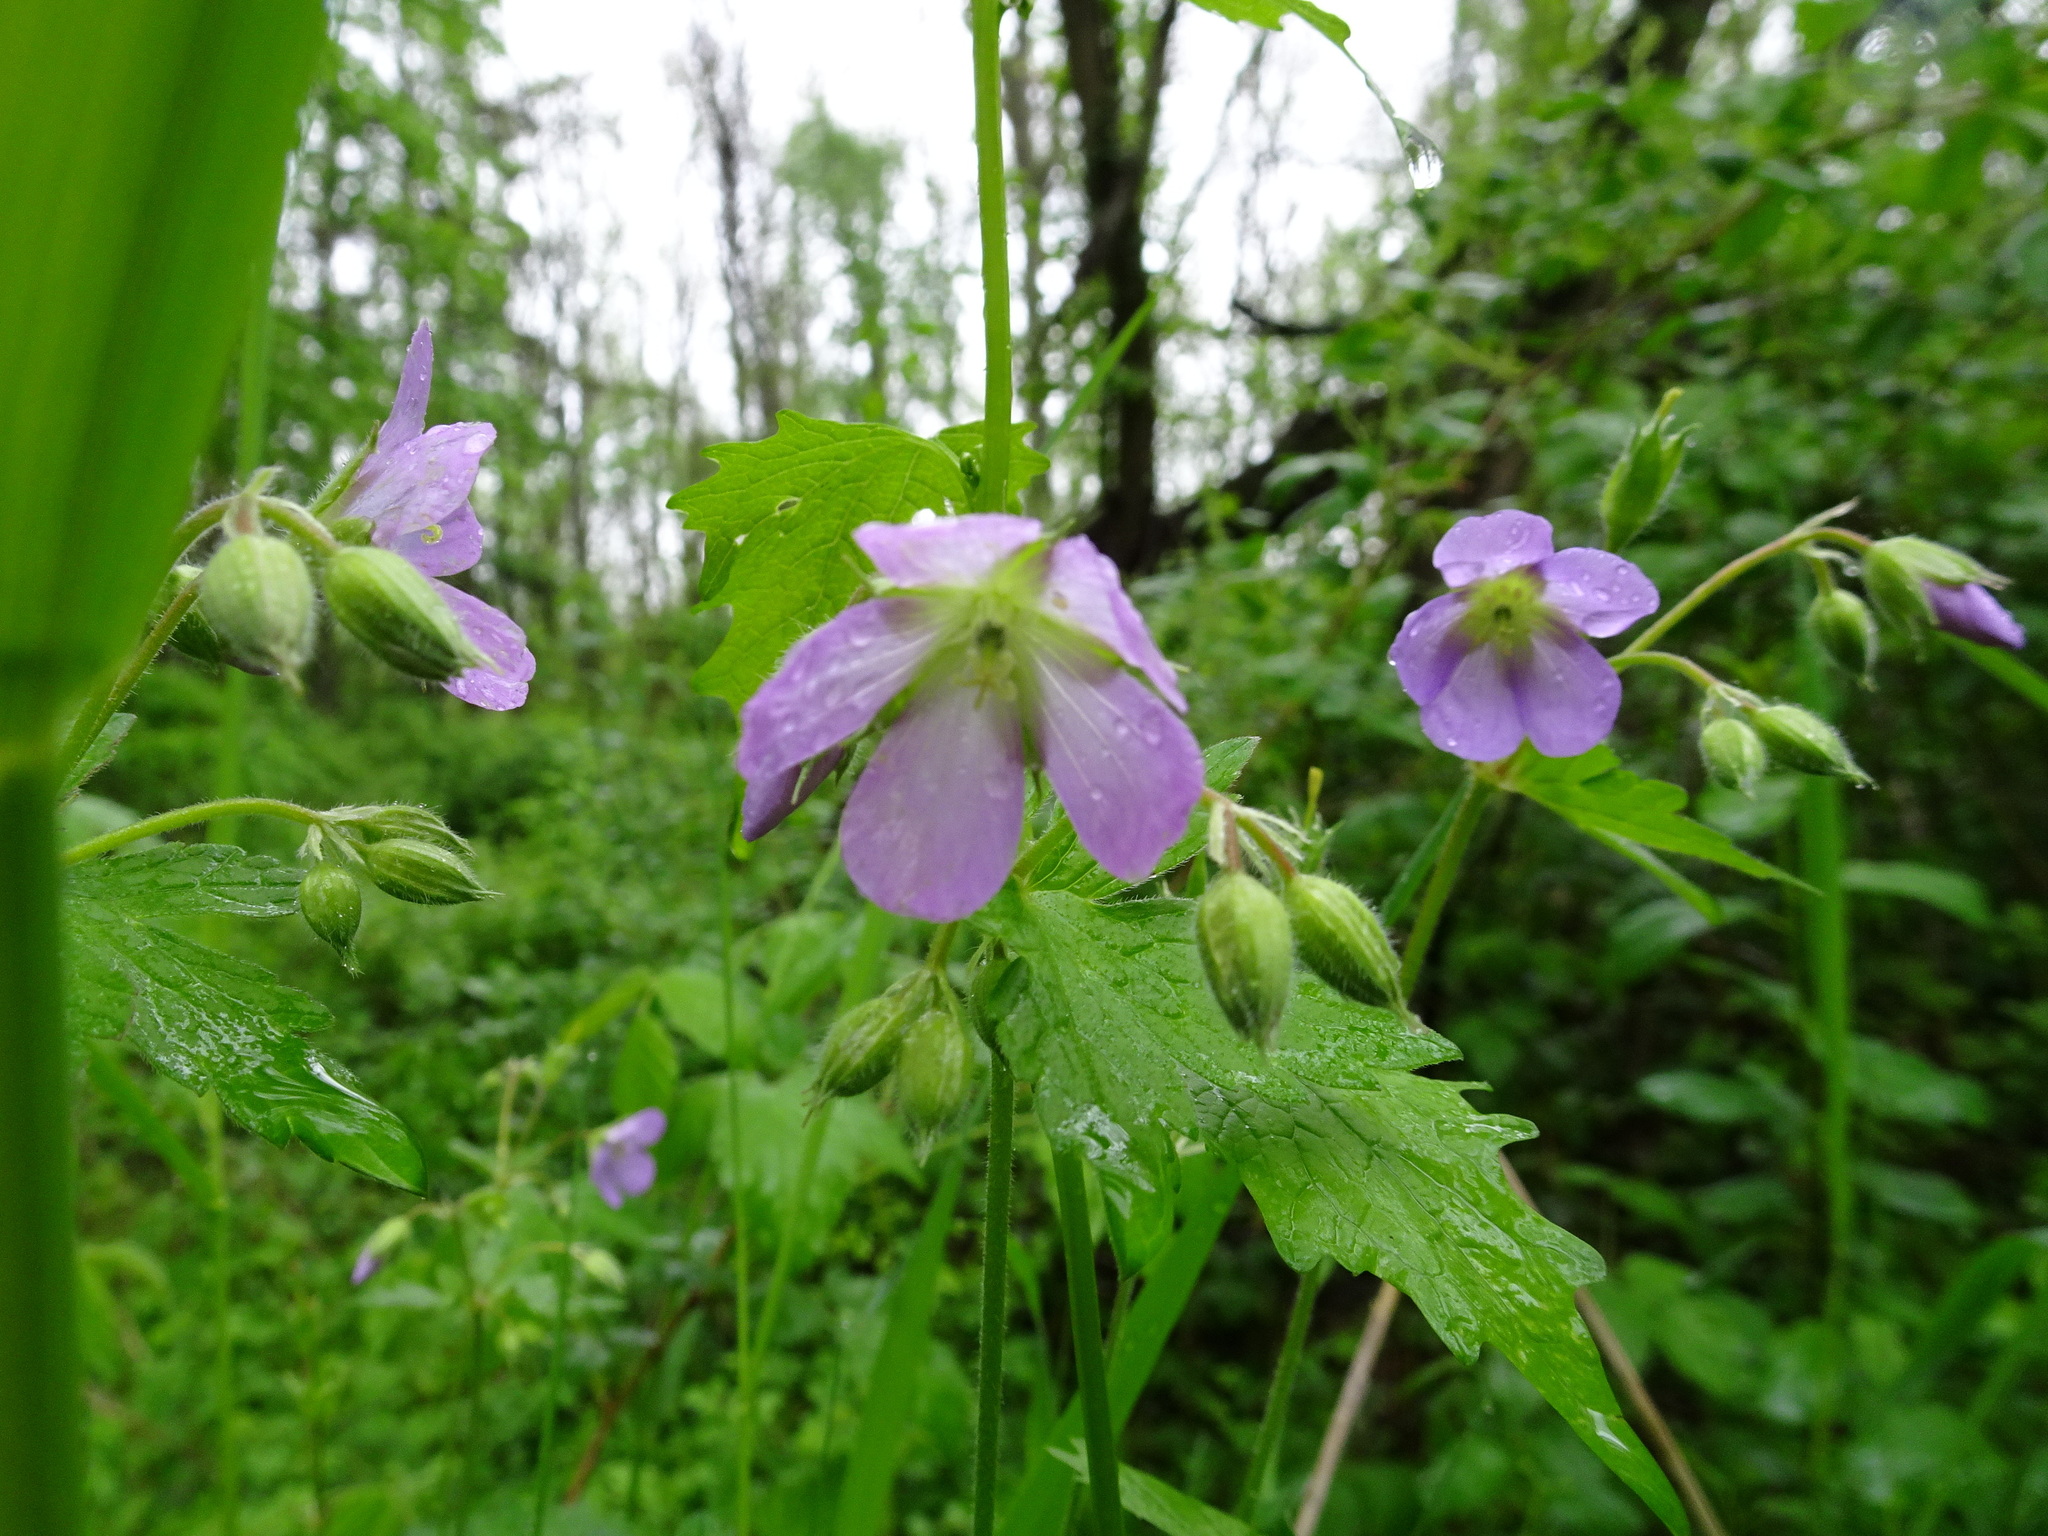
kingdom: Plantae
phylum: Tracheophyta
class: Magnoliopsida
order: Geraniales
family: Geraniaceae
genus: Geranium
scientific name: Geranium maculatum
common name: Spotted geranium
